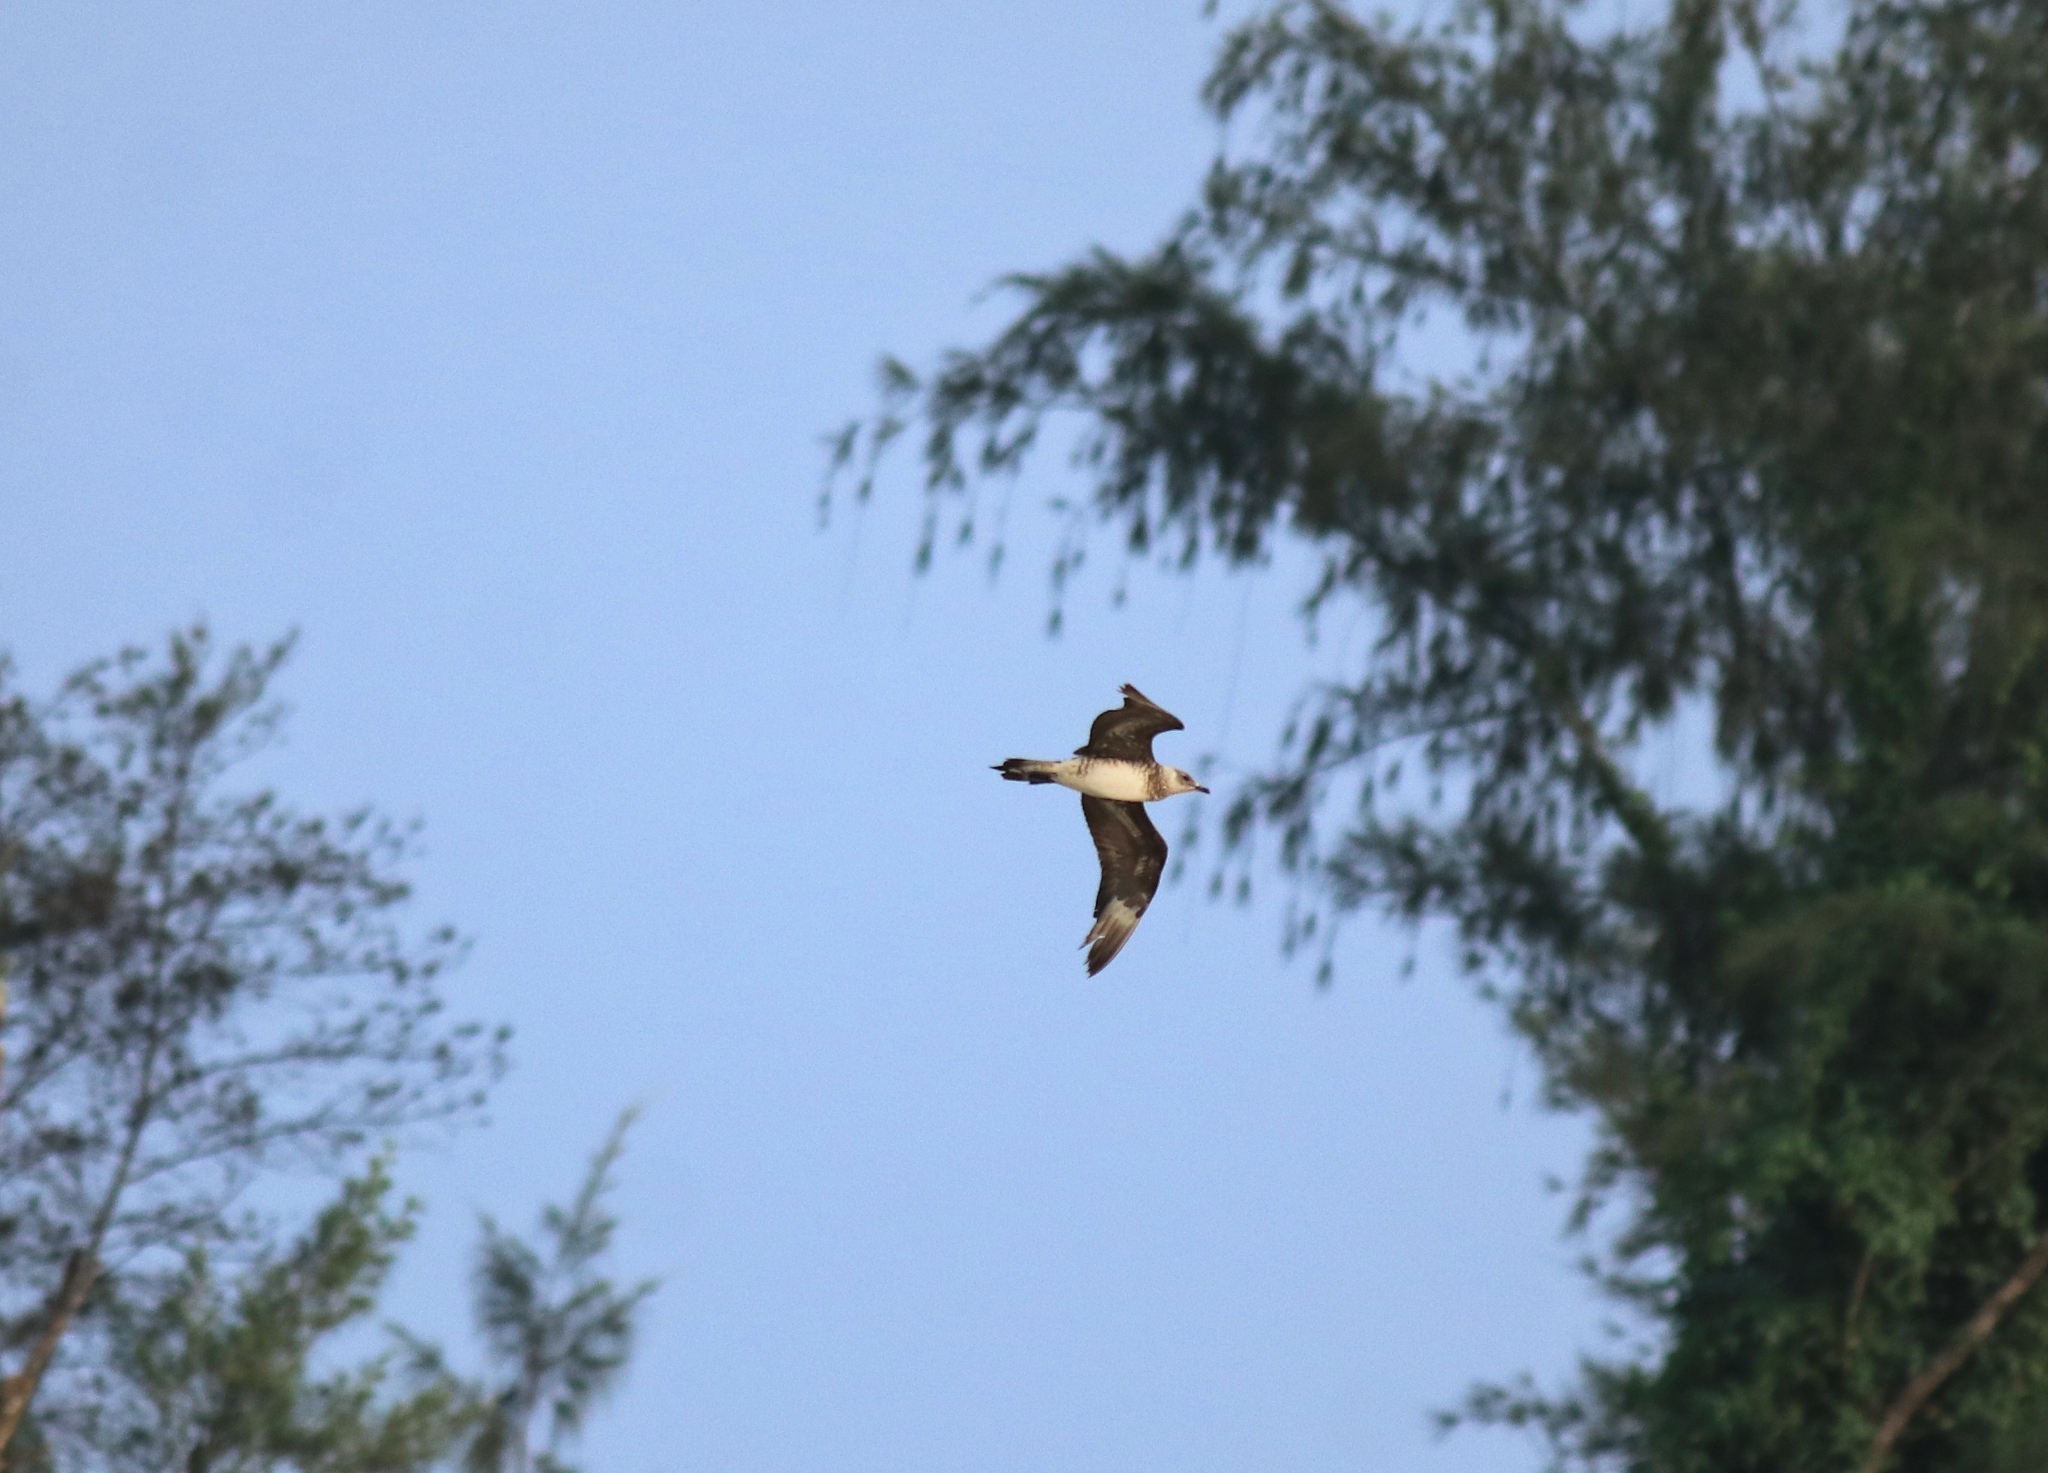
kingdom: Animalia
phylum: Chordata
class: Aves
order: Charadriiformes
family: Stercorariidae
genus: Stercorarius
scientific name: Stercorarius parasiticus
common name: Parasitic jaeger
